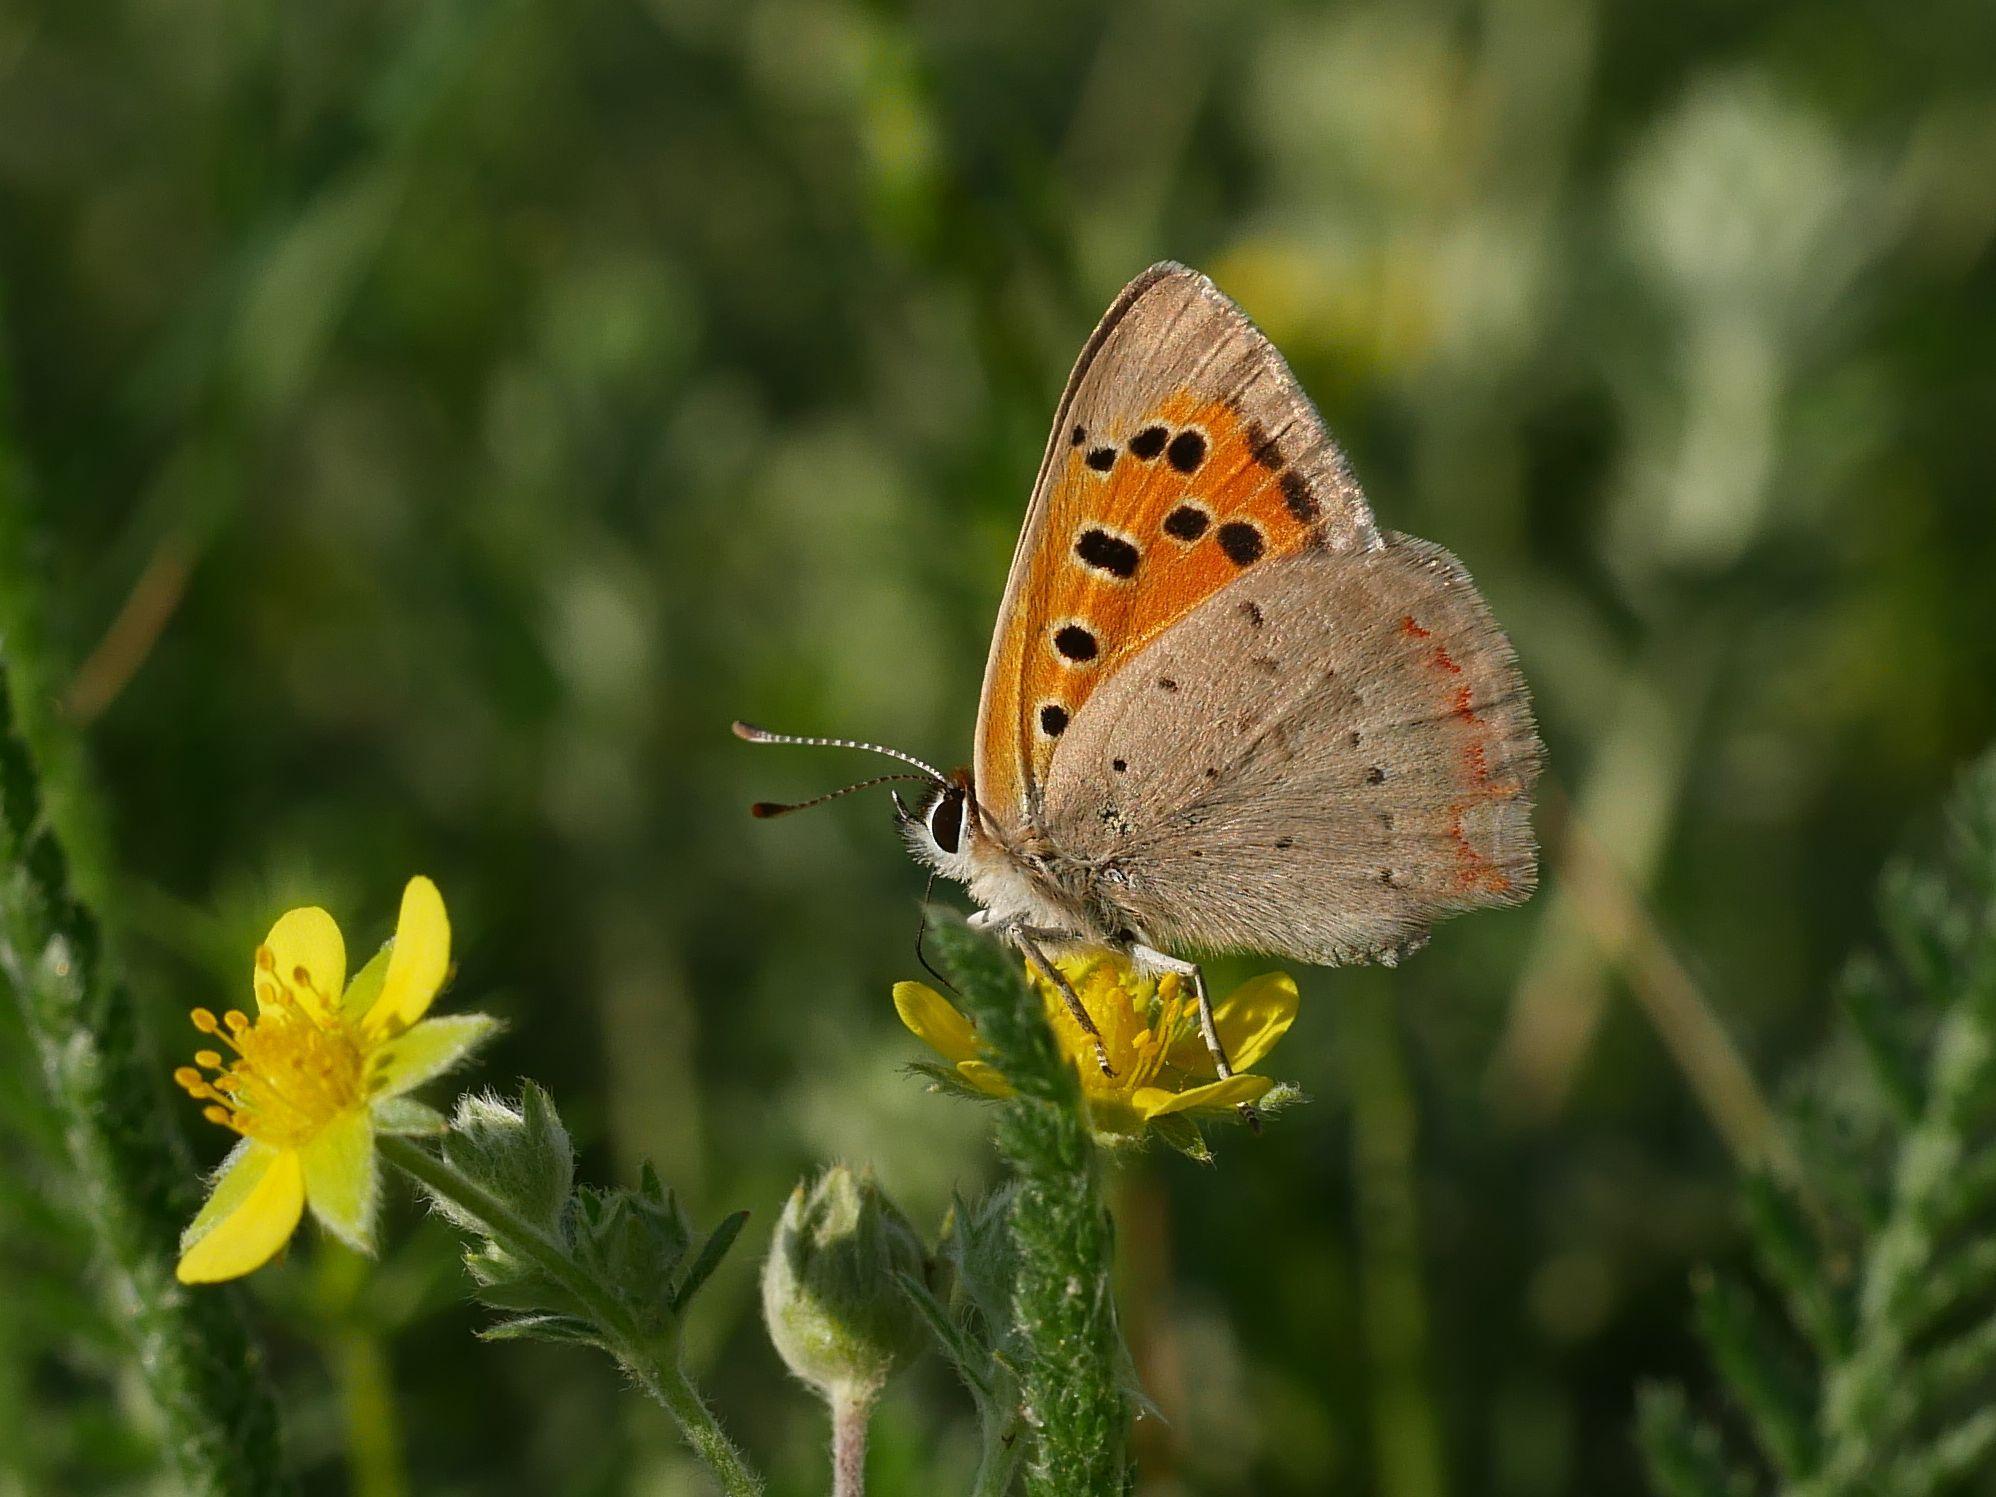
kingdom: Animalia
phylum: Arthropoda
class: Insecta
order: Lepidoptera
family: Lycaenidae
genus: Lycaena
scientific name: Lycaena phlaeas
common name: Small copper
